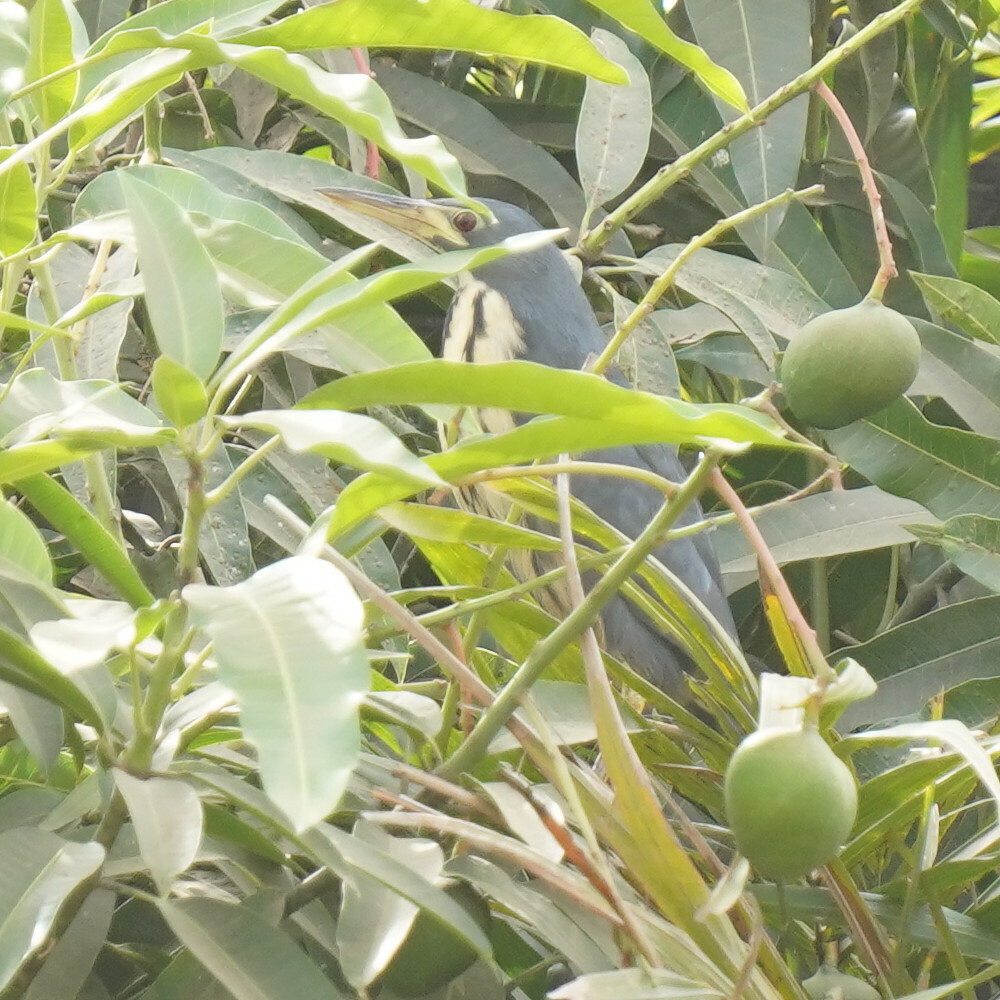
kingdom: Animalia
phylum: Chordata
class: Aves
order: Pelecaniformes
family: Ardeidae
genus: Ixobrychus
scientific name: Ixobrychus sturmii
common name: Dwarf bittern
